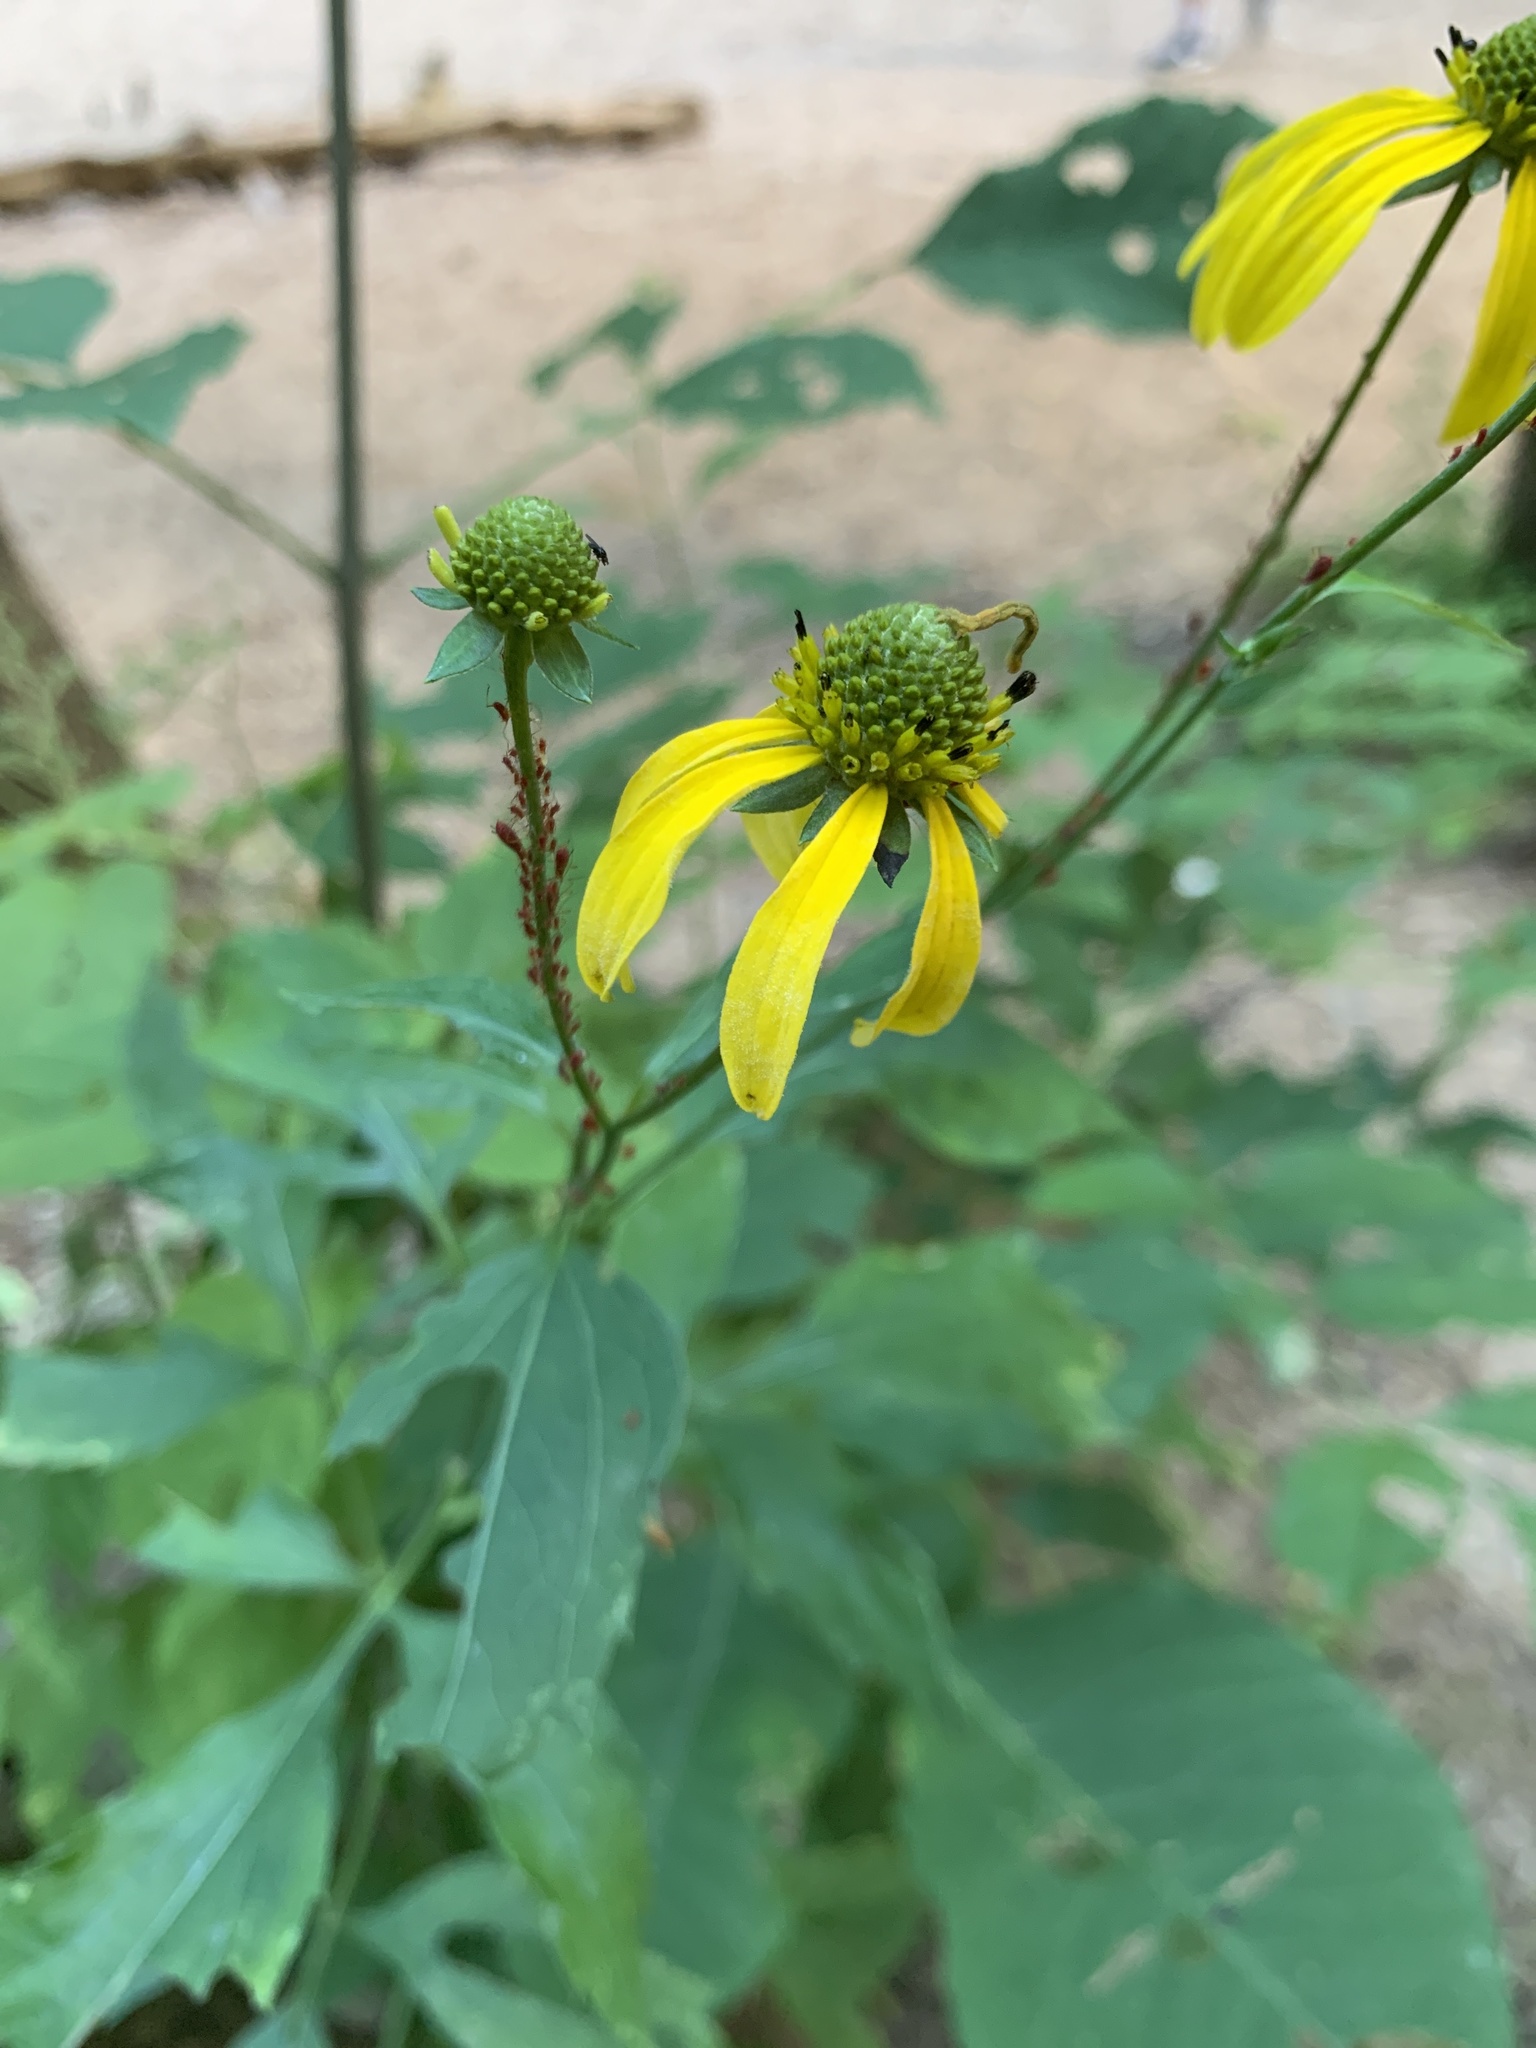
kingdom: Plantae
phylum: Tracheophyta
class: Magnoliopsida
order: Asterales
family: Asteraceae
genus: Rudbeckia
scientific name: Rudbeckia laciniata
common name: Coneflower
